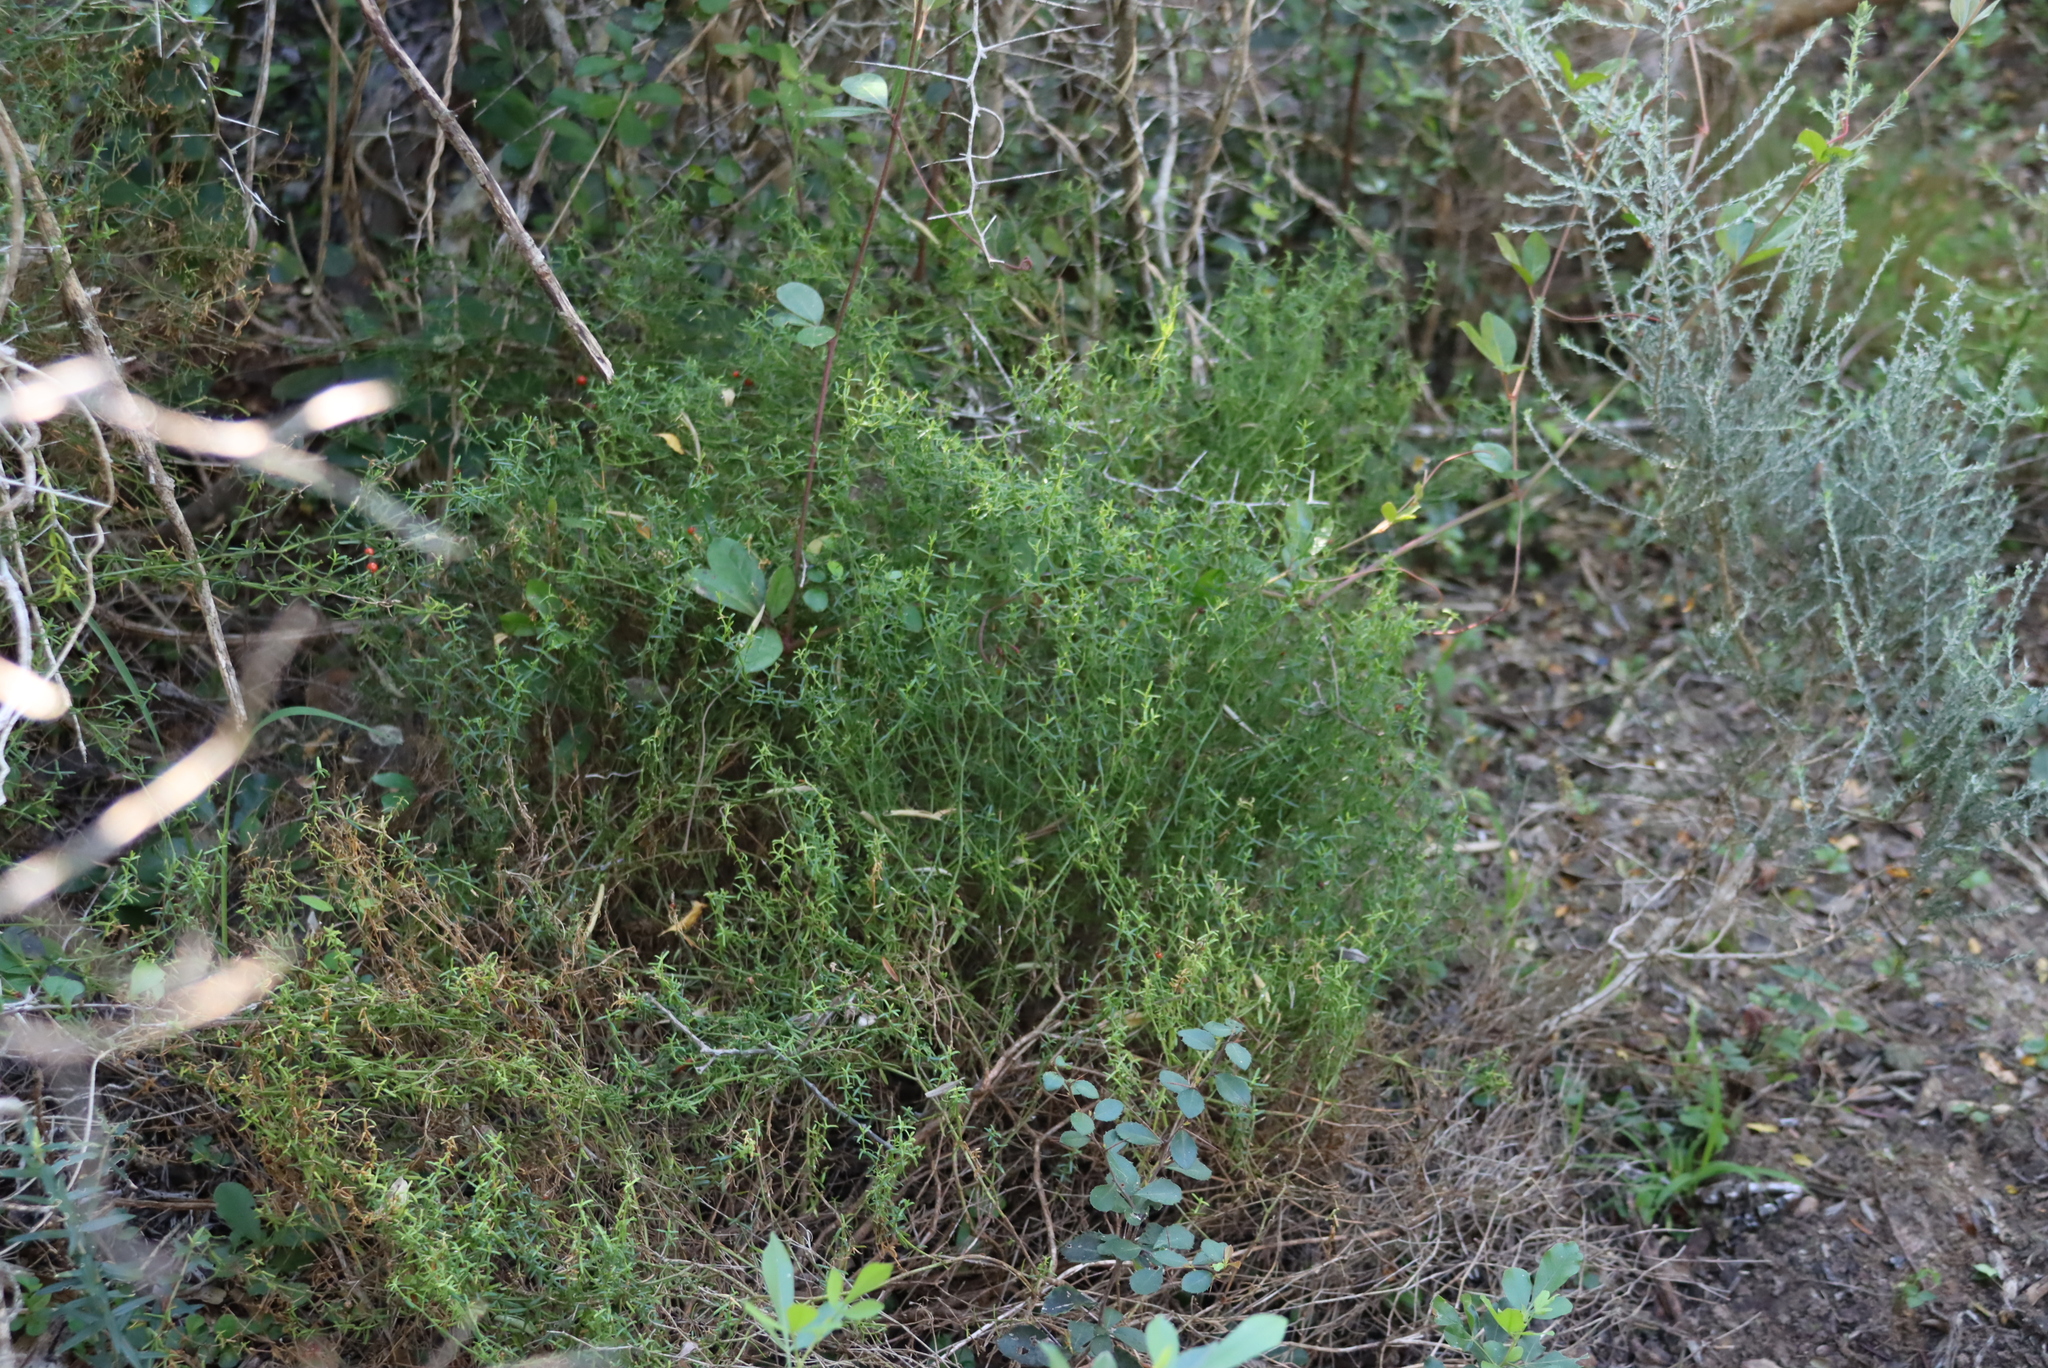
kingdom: Plantae
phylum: Tracheophyta
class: Magnoliopsida
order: Gentianales
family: Gentianaceae
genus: Chironia
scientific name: Chironia baccifera
